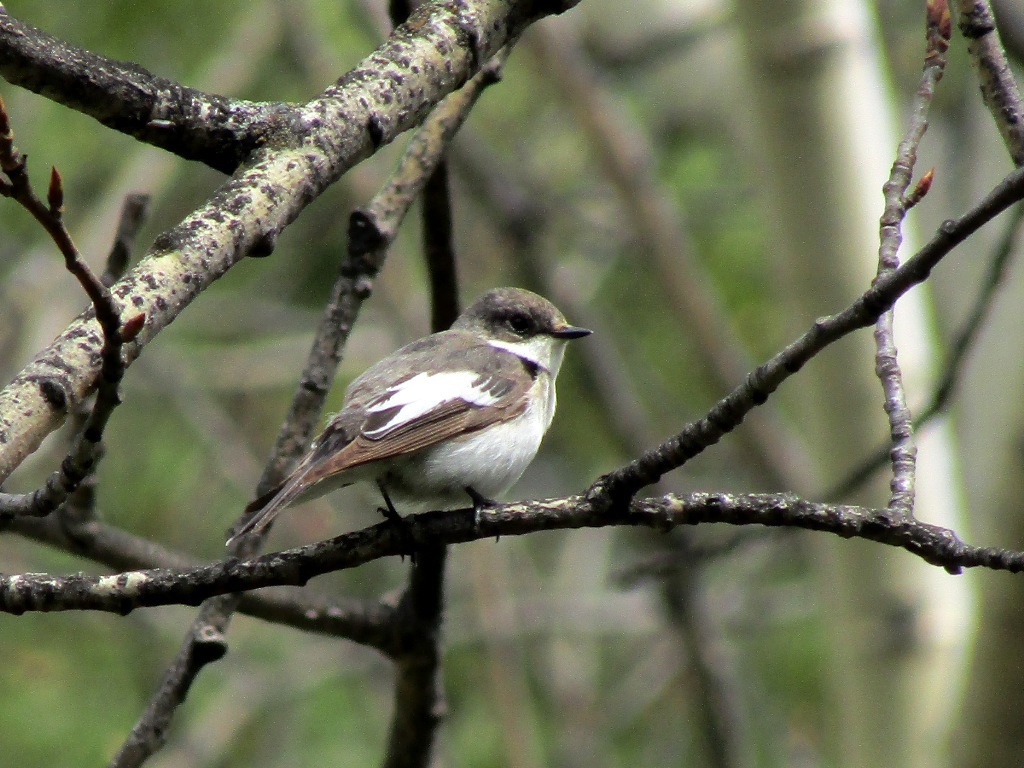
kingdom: Animalia
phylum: Chordata
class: Aves
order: Passeriformes
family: Muscicapidae
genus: Ficedula
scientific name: Ficedula hypoleuca
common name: European pied flycatcher
